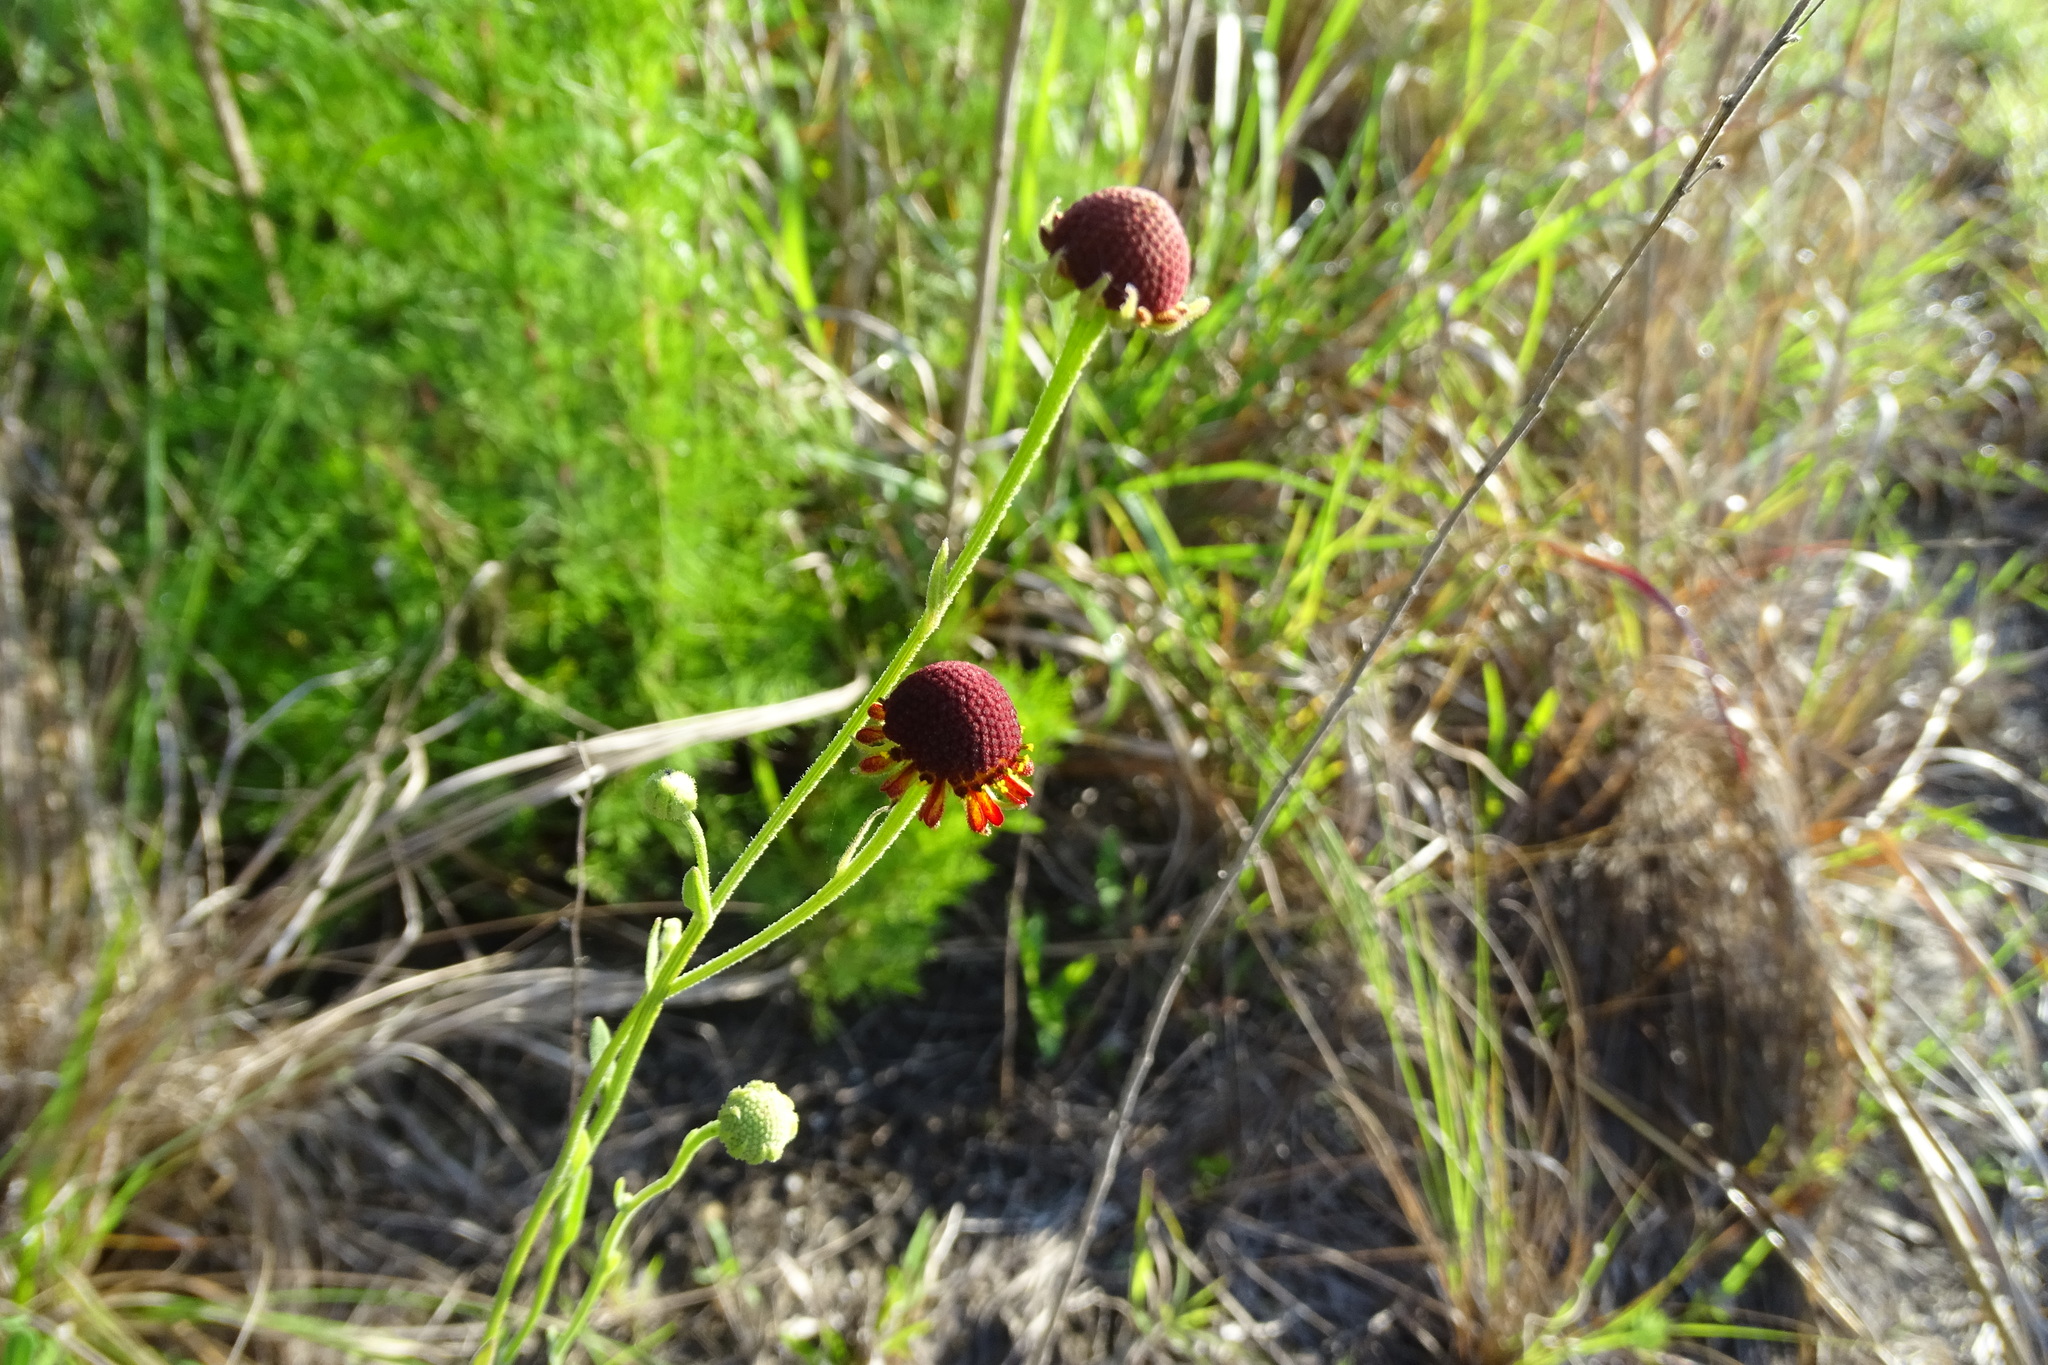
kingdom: Plantae
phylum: Tracheophyta
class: Magnoliopsida
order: Asterales
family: Asteraceae
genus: Helenium
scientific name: Helenium flexuosum
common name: Naked-flowered sneezeweed
